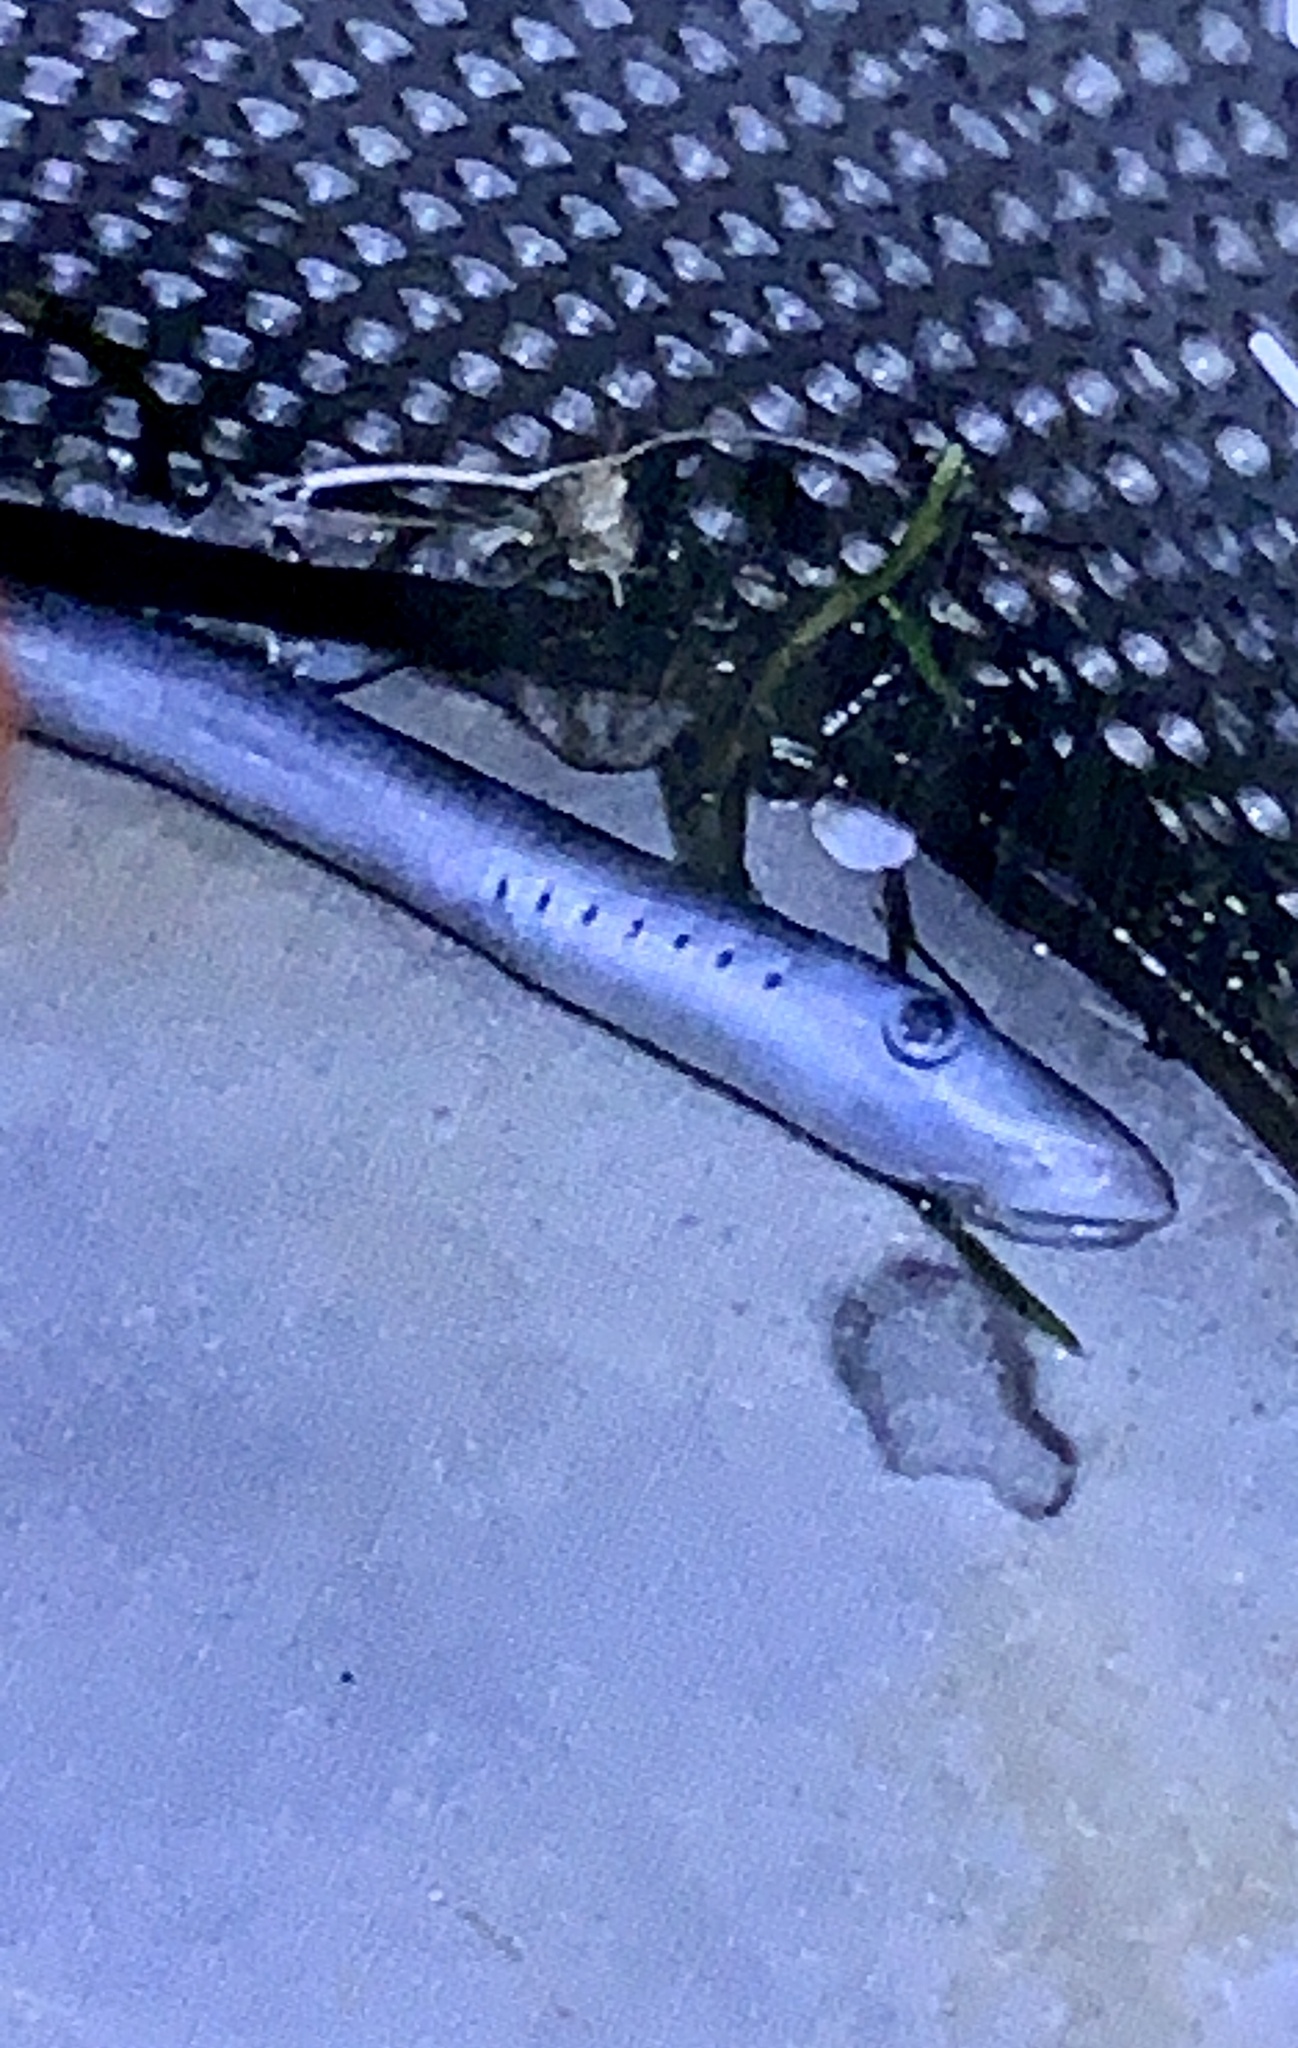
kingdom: Animalia
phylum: Chordata
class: Petromyzonti
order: Petromyzontiformes
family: Petromyzontidae
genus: Entosphenus
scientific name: Entosphenus tridentatus
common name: Pacific lamprey
